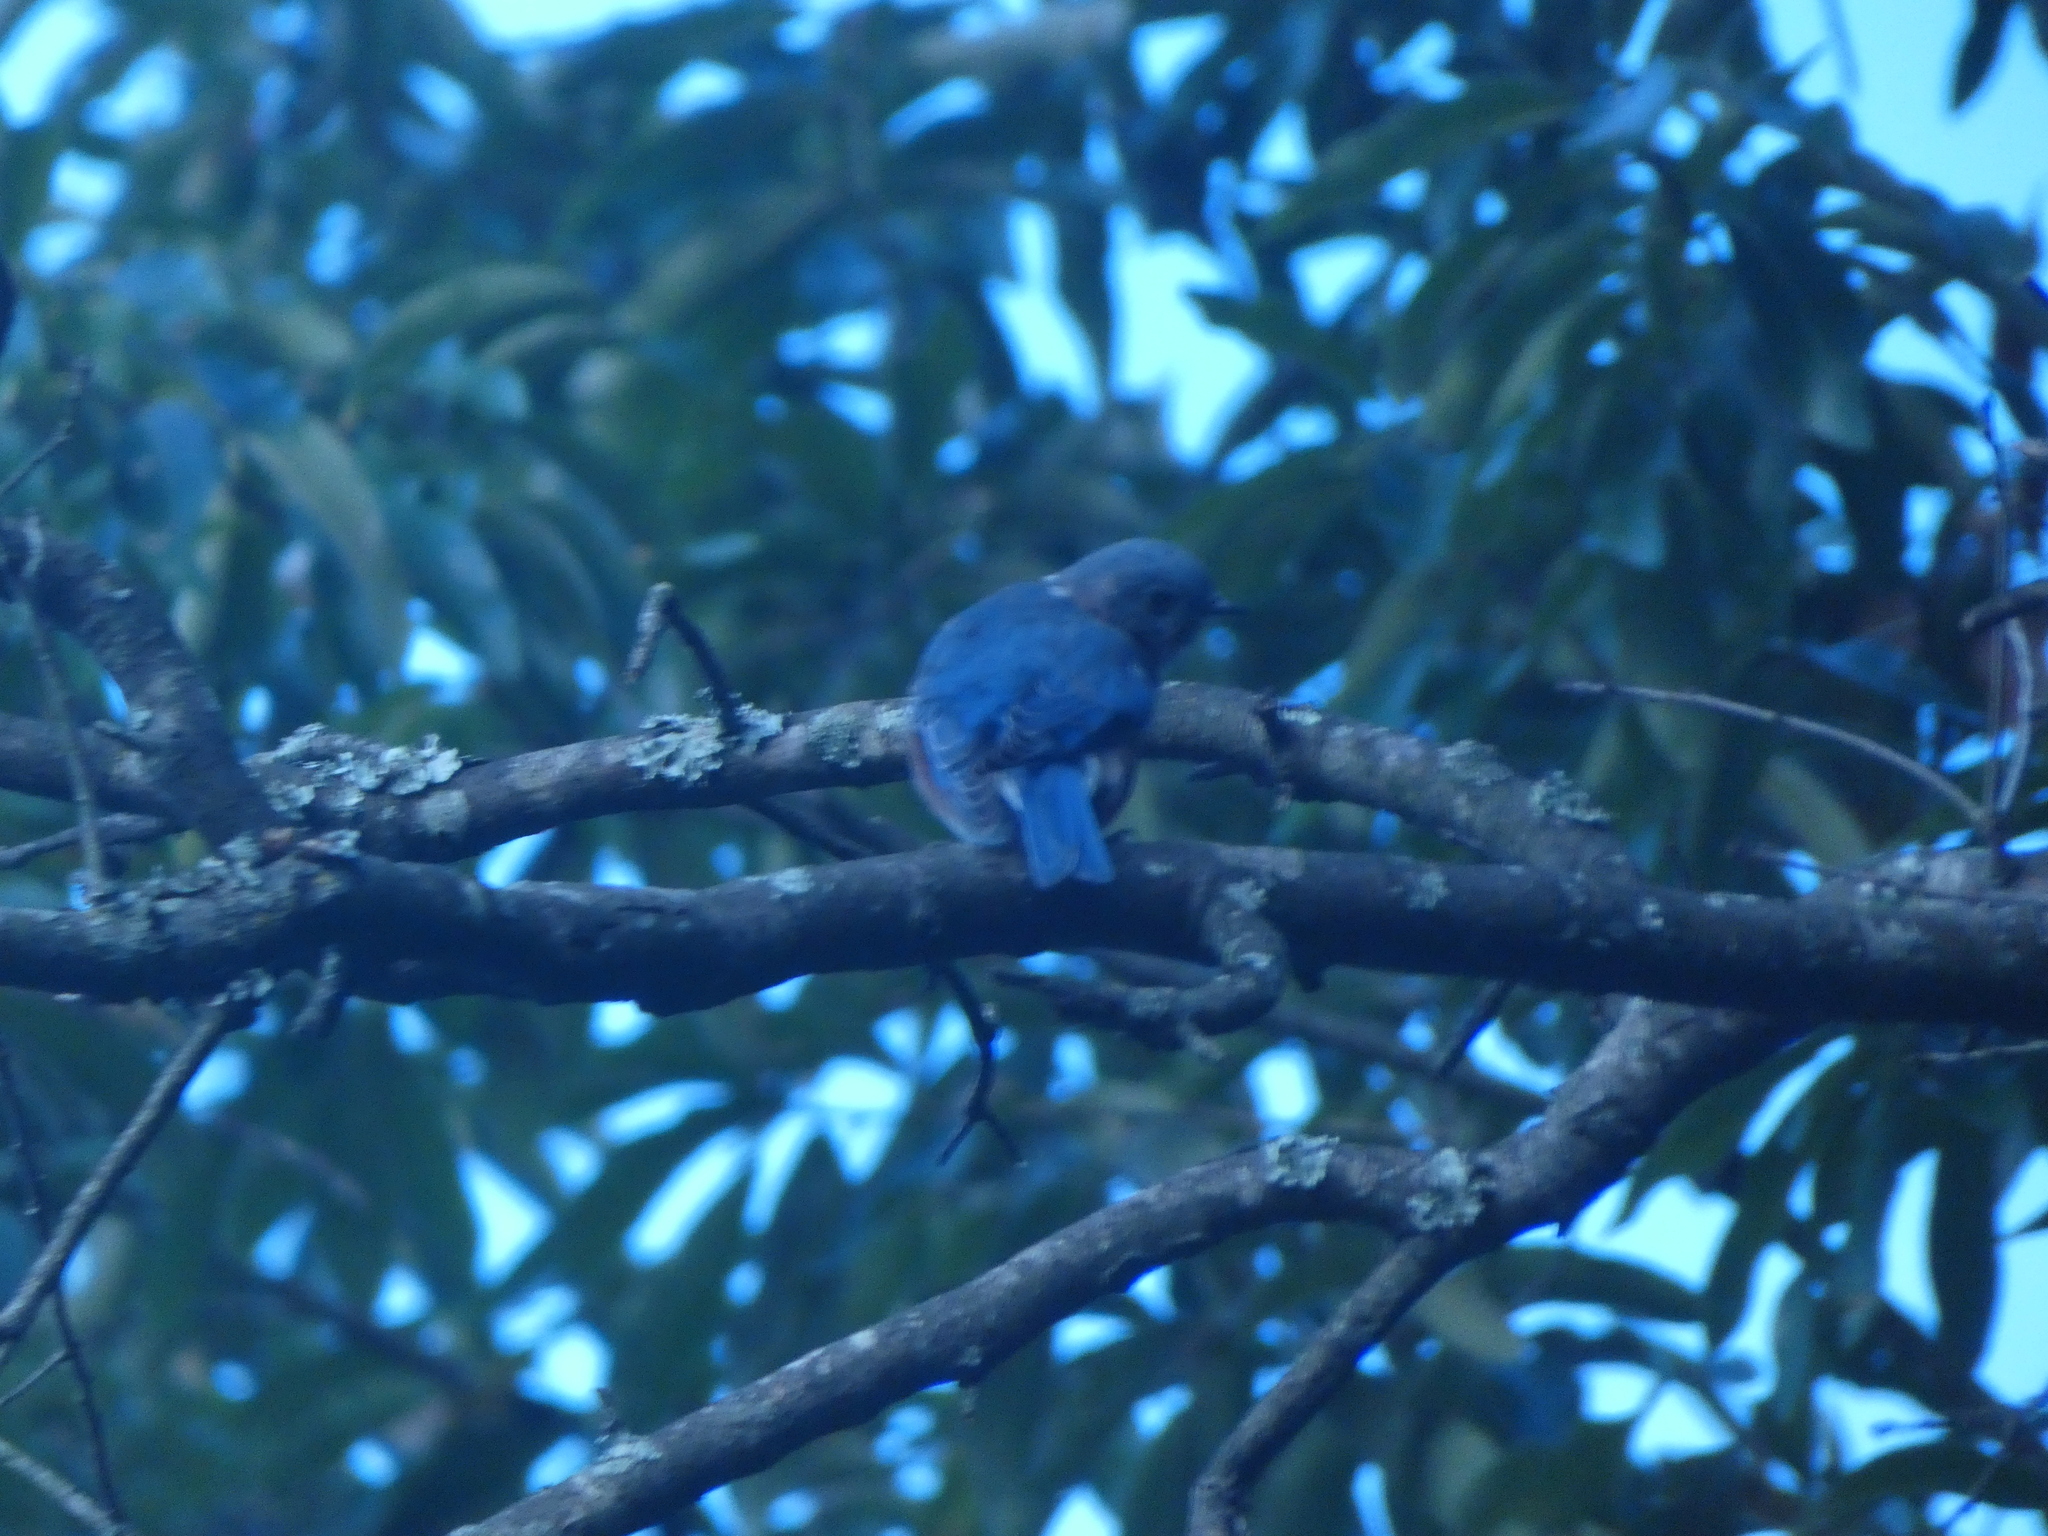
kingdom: Animalia
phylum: Chordata
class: Aves
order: Passeriformes
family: Turdidae
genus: Sialia
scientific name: Sialia sialis
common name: Eastern bluebird
